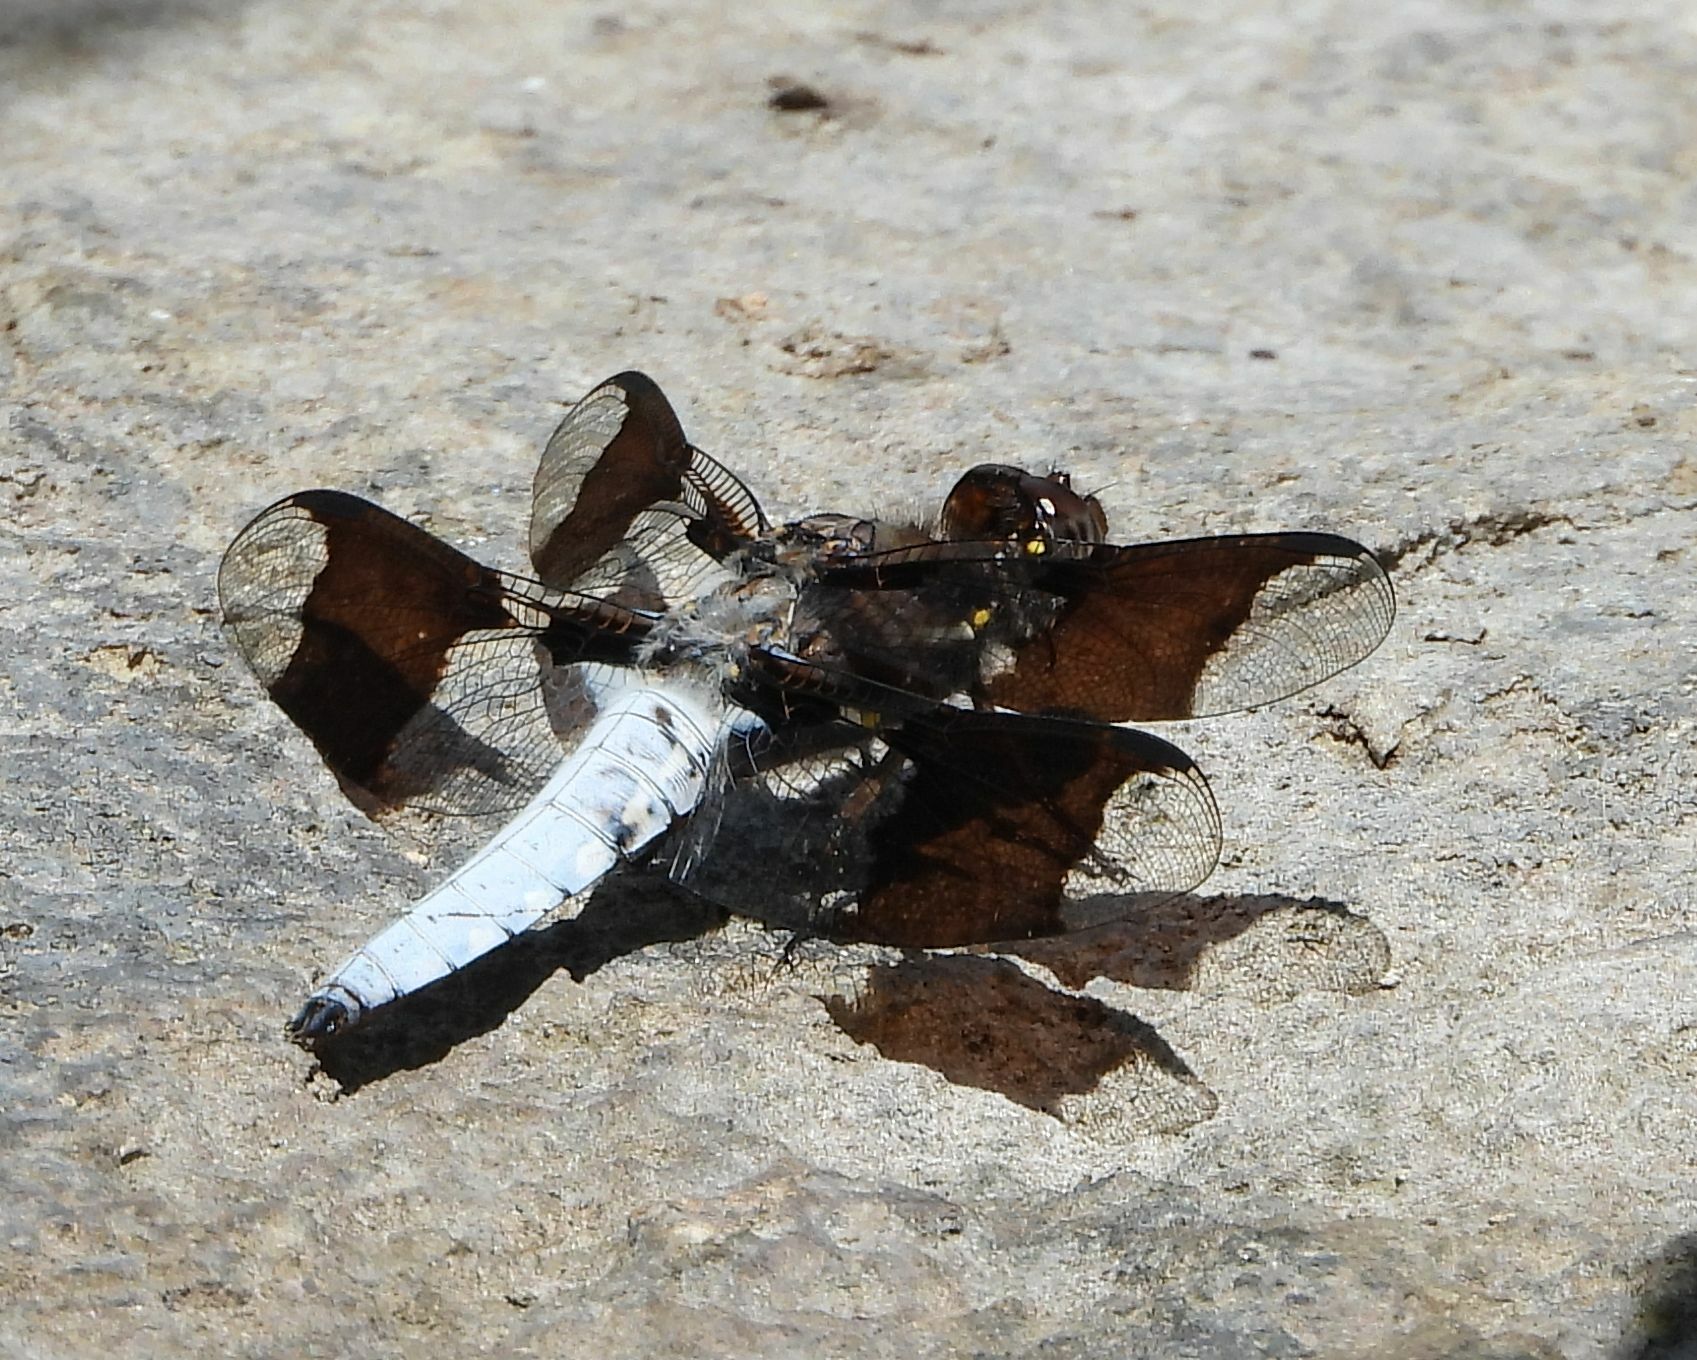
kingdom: Animalia
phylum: Arthropoda
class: Insecta
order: Odonata
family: Libellulidae
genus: Plathemis
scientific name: Plathemis lydia
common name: Common whitetail
